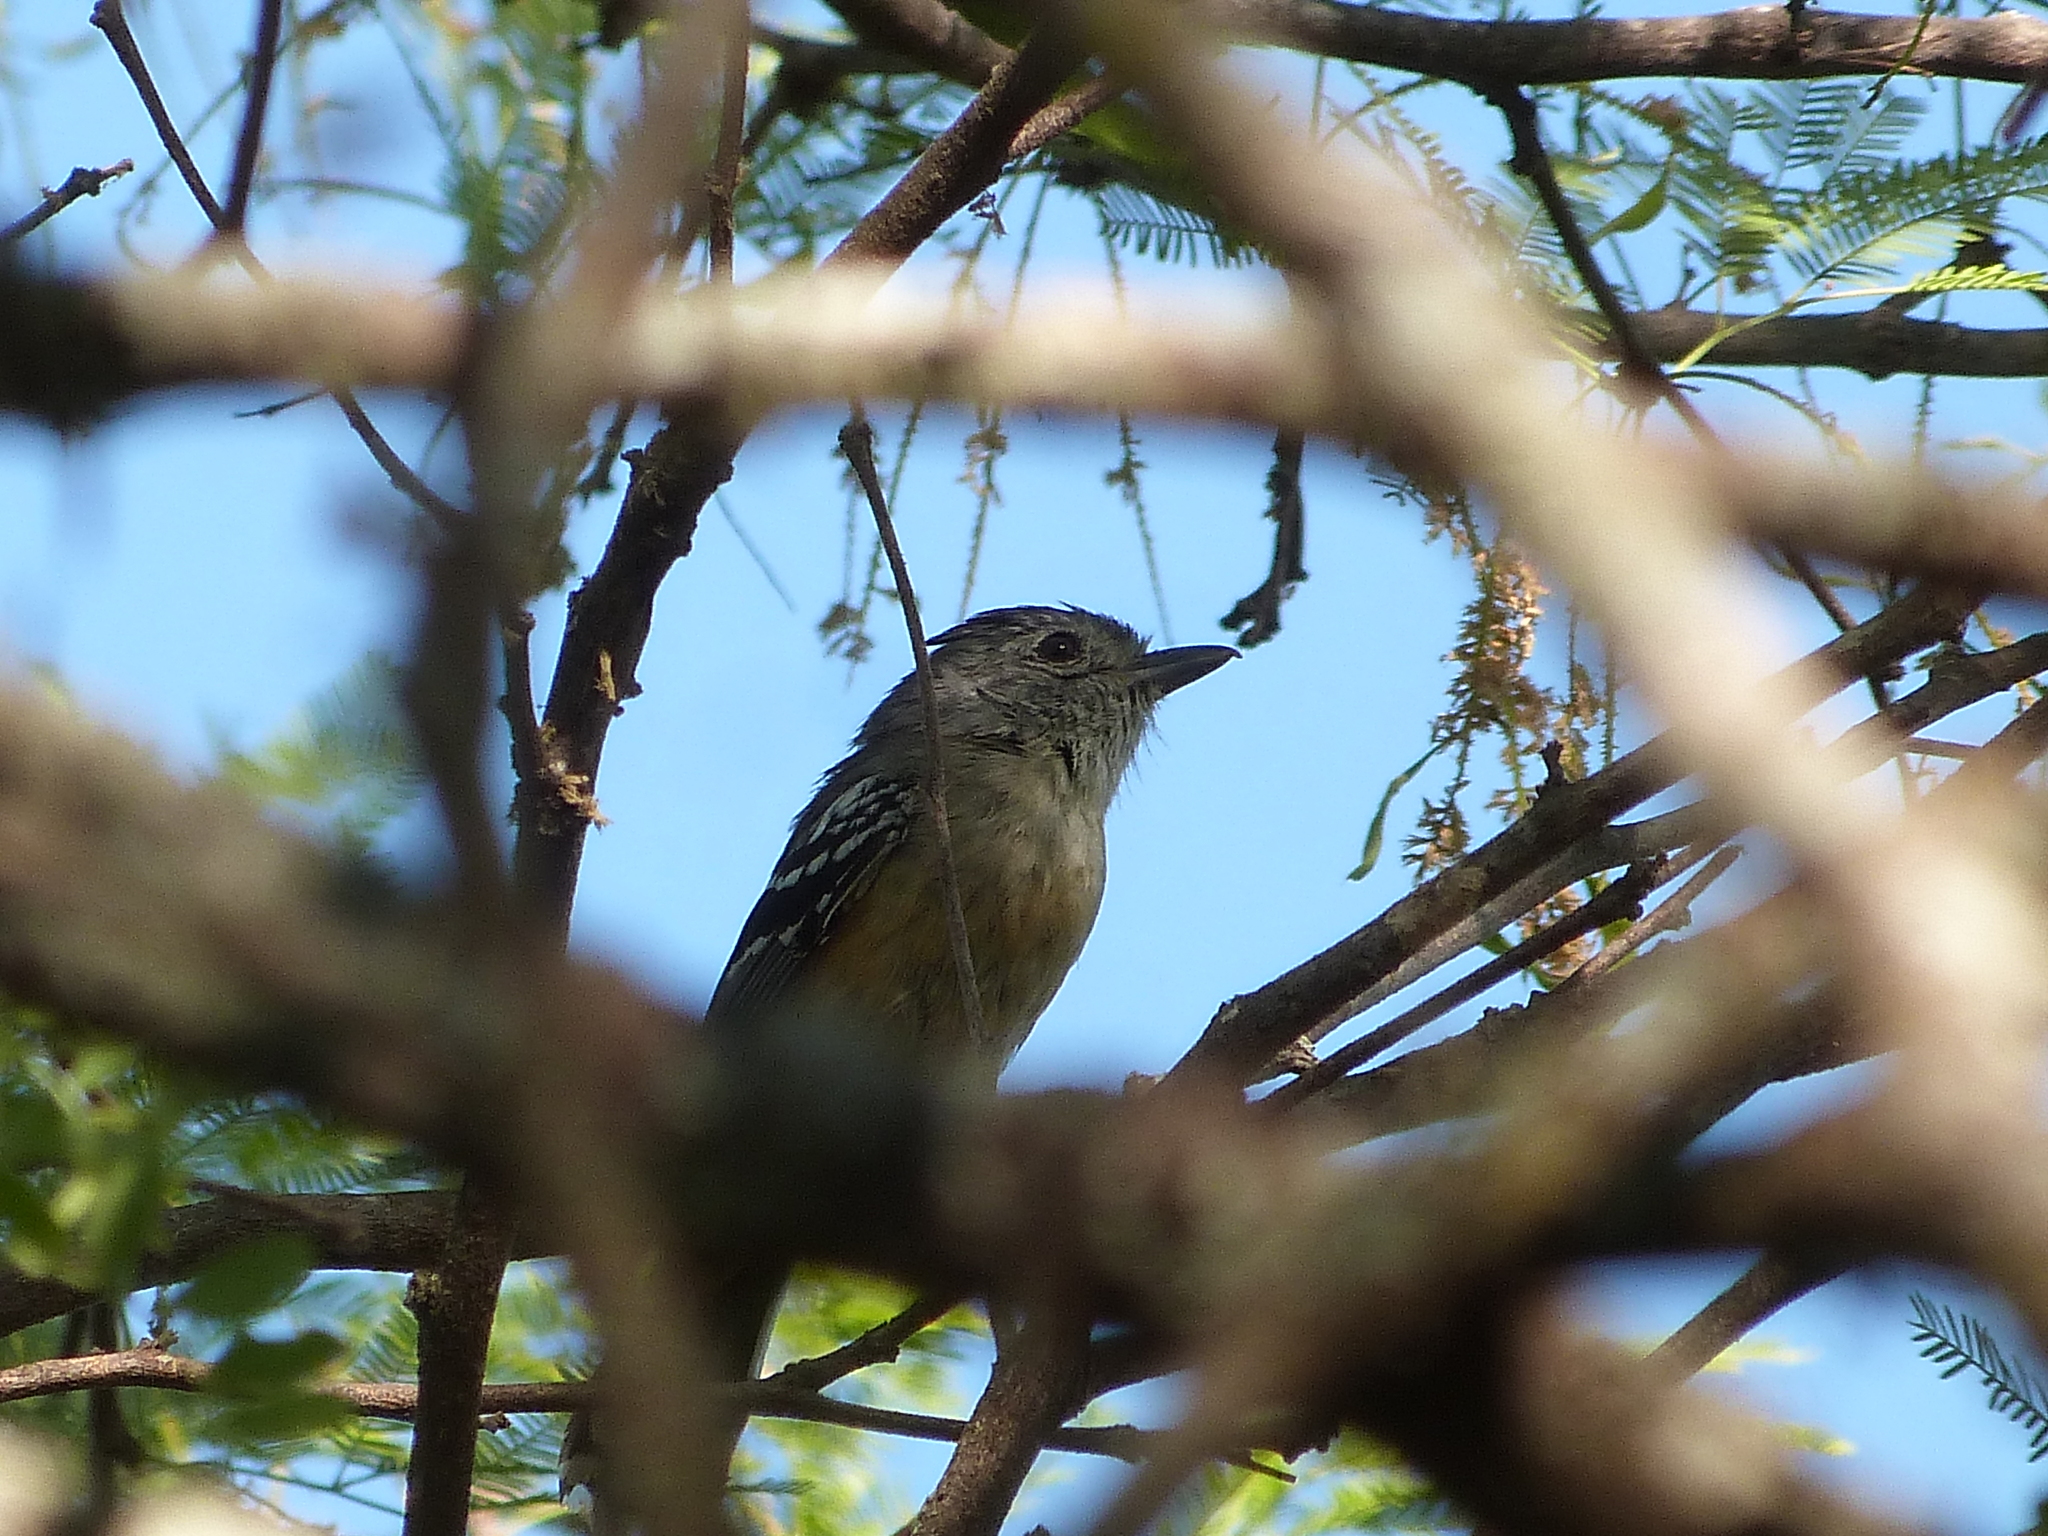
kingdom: Animalia
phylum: Chordata
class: Aves
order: Passeriformes
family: Thamnophilidae
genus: Thamnophilus
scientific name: Thamnophilus caerulescens
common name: Variable antshrike
